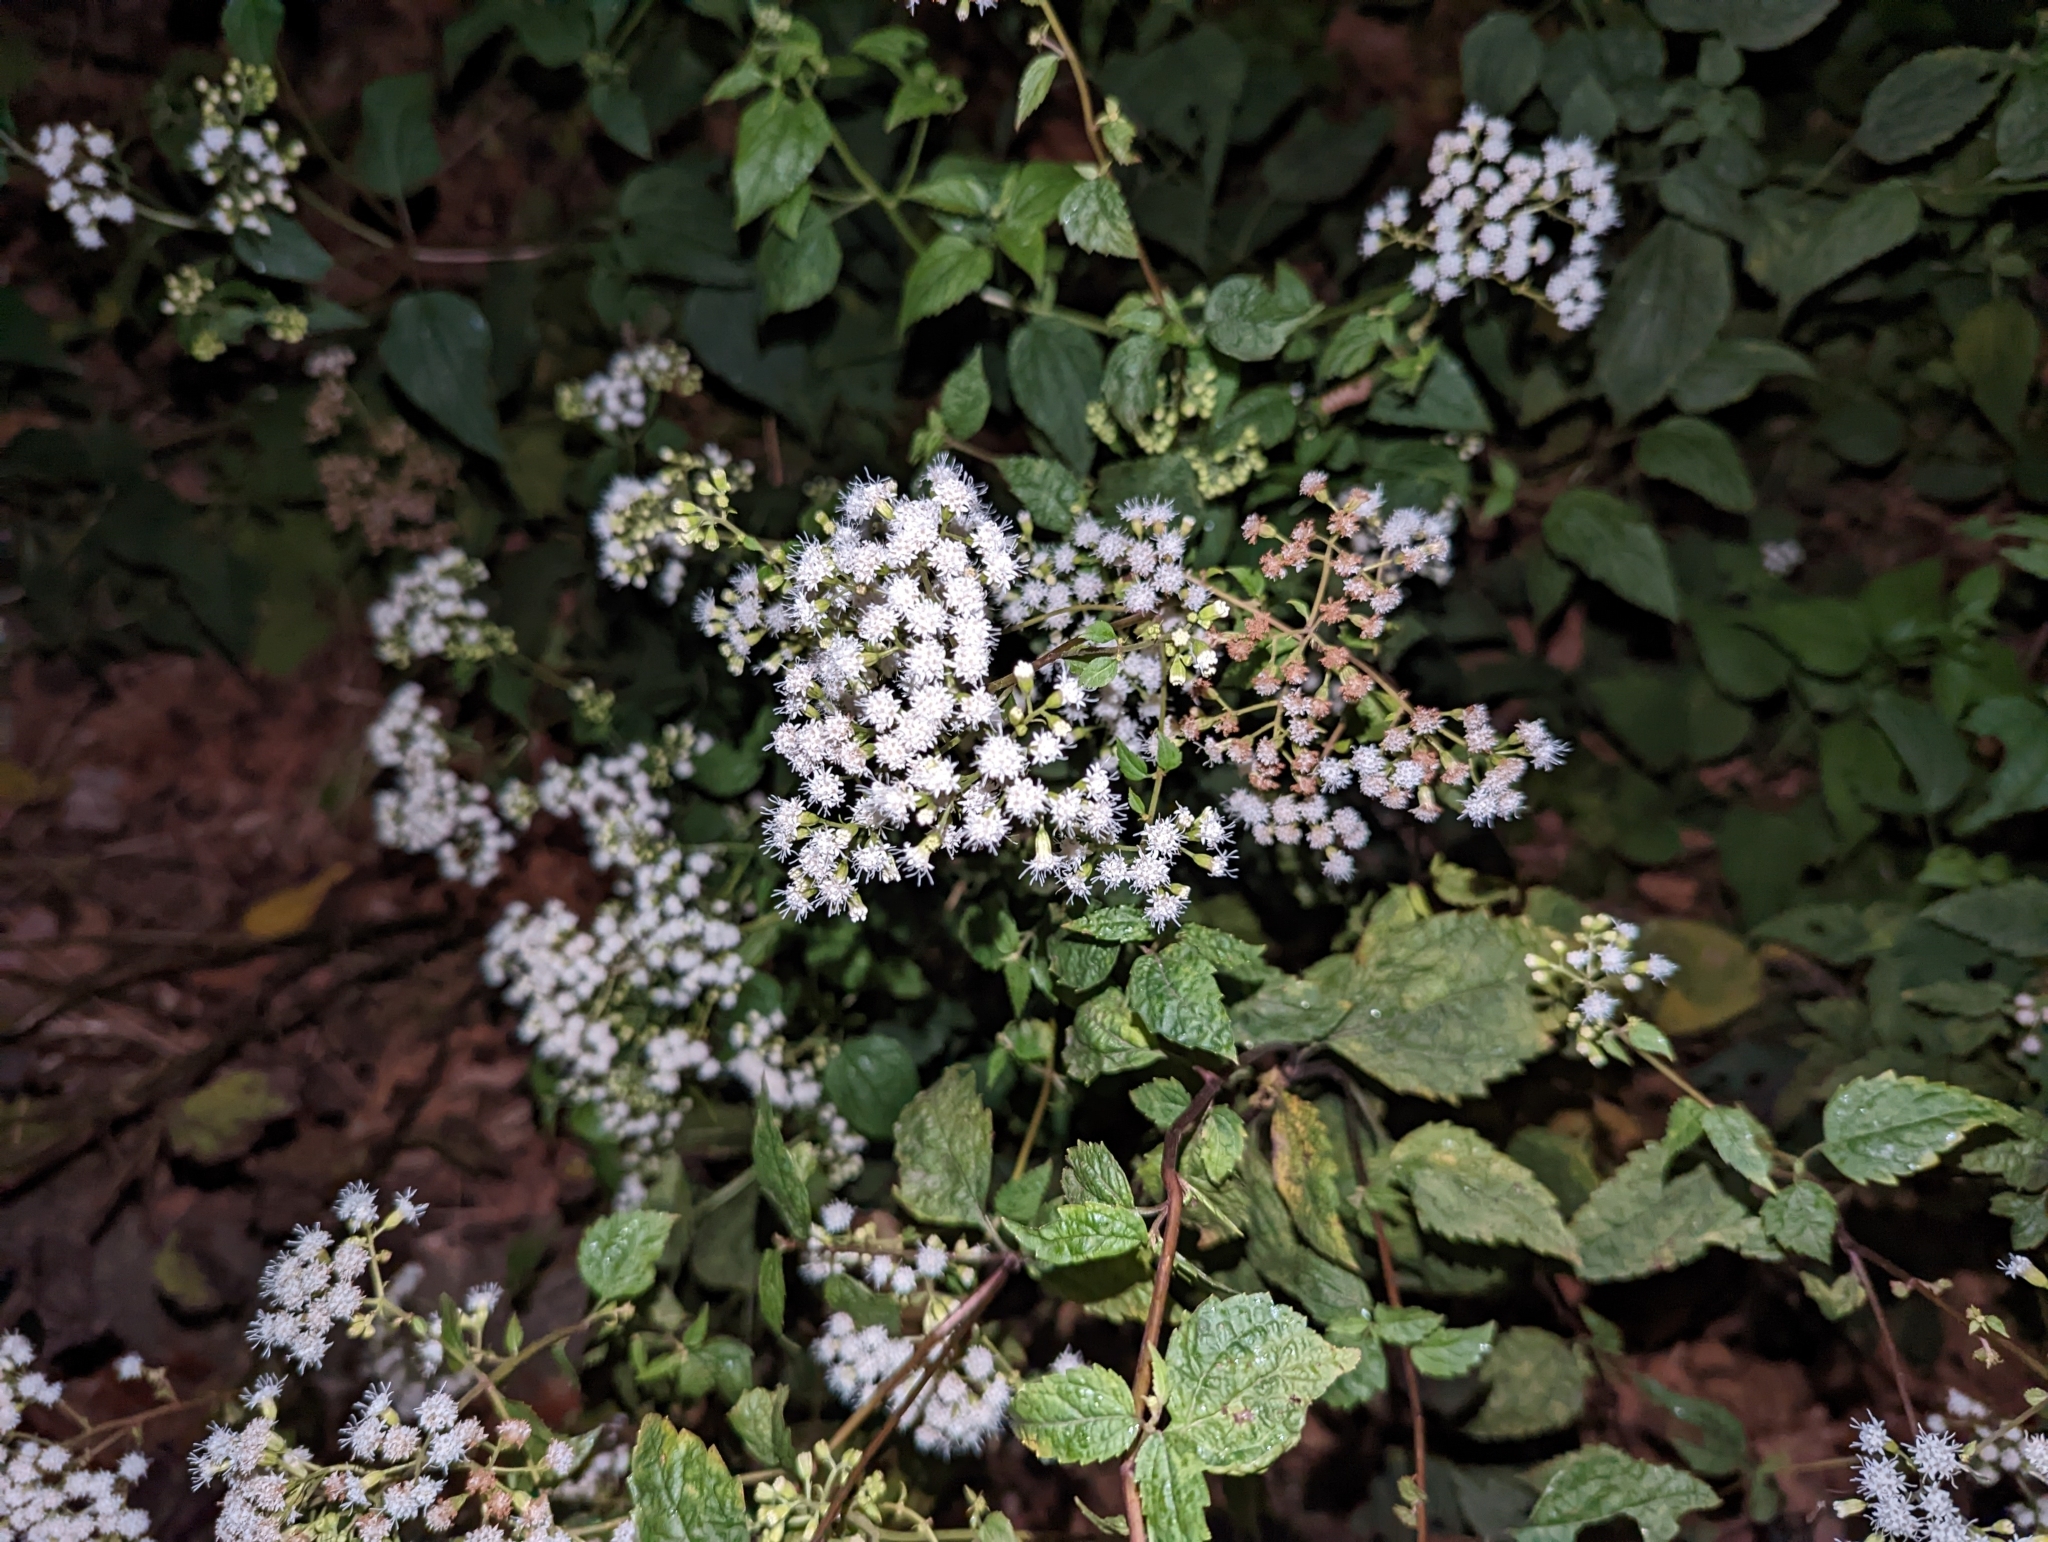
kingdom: Plantae
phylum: Tracheophyta
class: Magnoliopsida
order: Asterales
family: Asteraceae
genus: Ageratina
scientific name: Ageratina altissima
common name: White snakeroot
